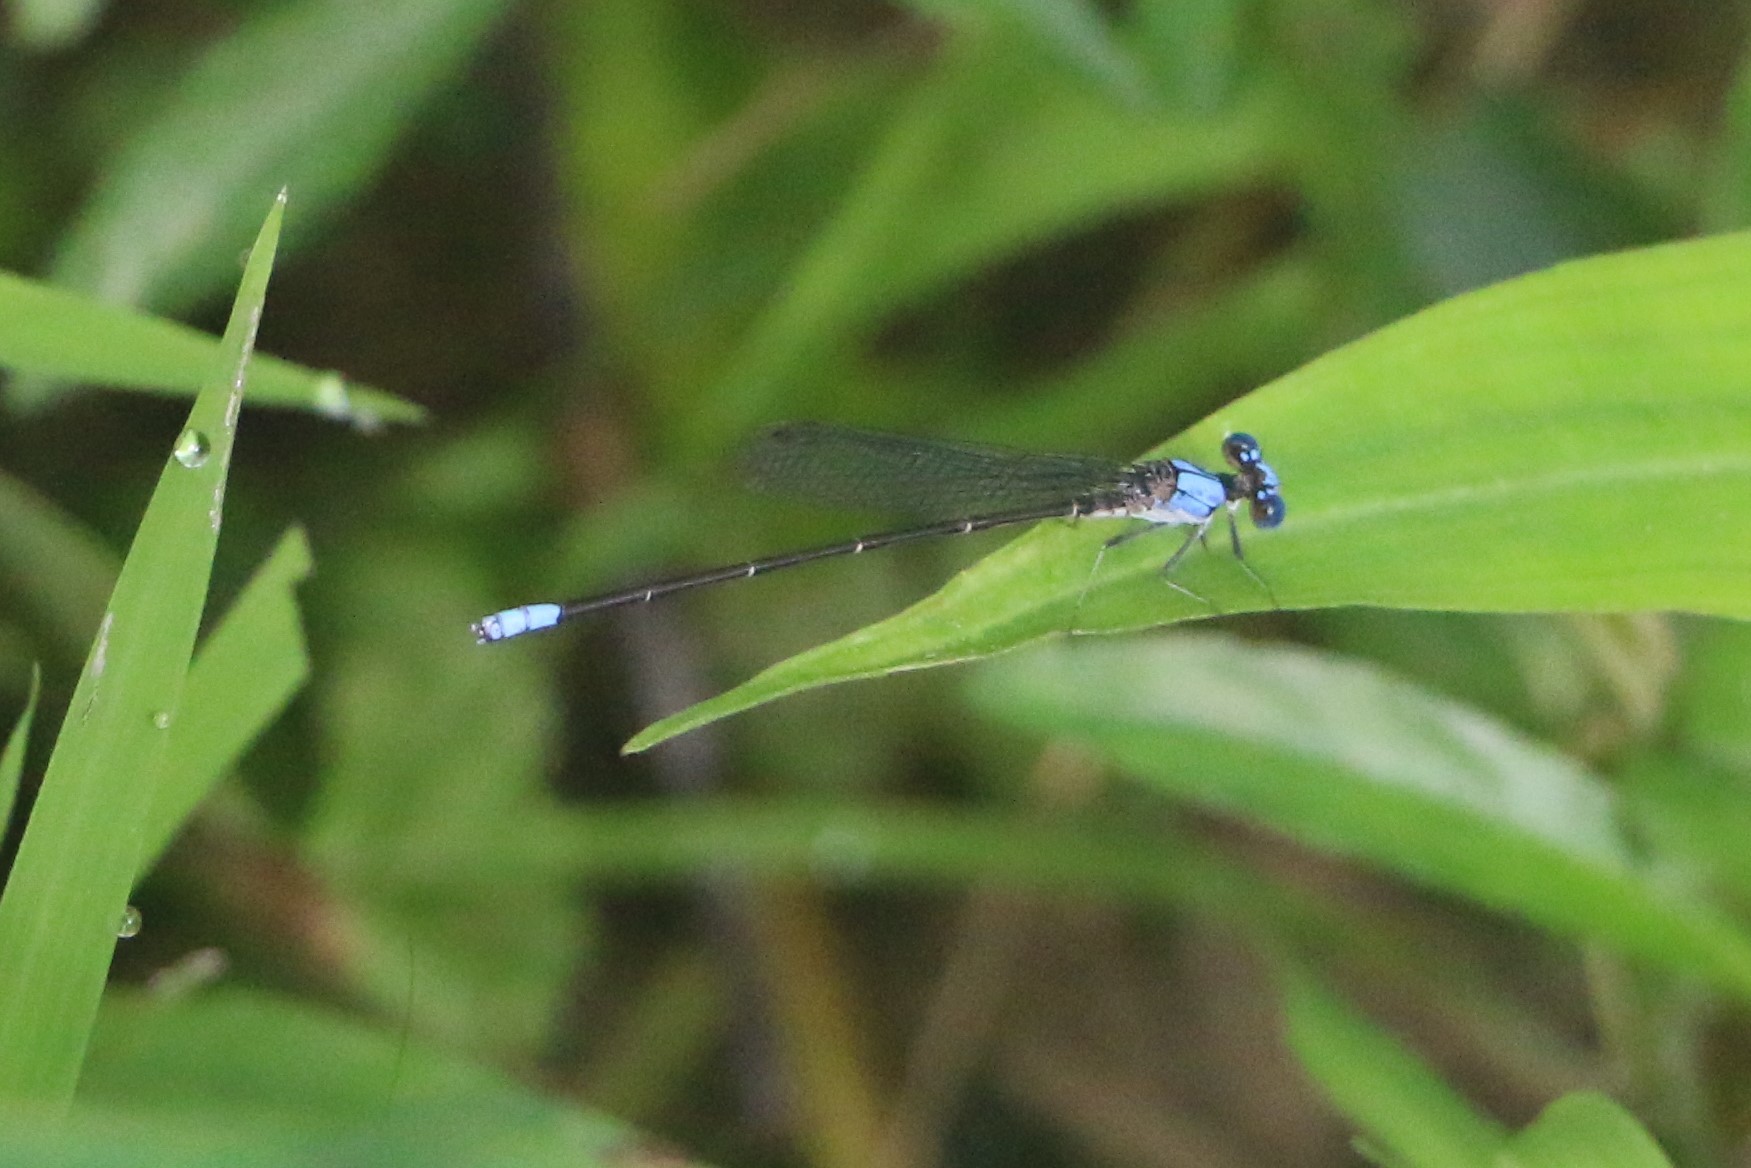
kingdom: Animalia
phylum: Arthropoda
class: Insecta
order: Odonata
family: Coenagrionidae
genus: Argia
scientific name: Argia apicalis
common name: Blue-fronted dancer
